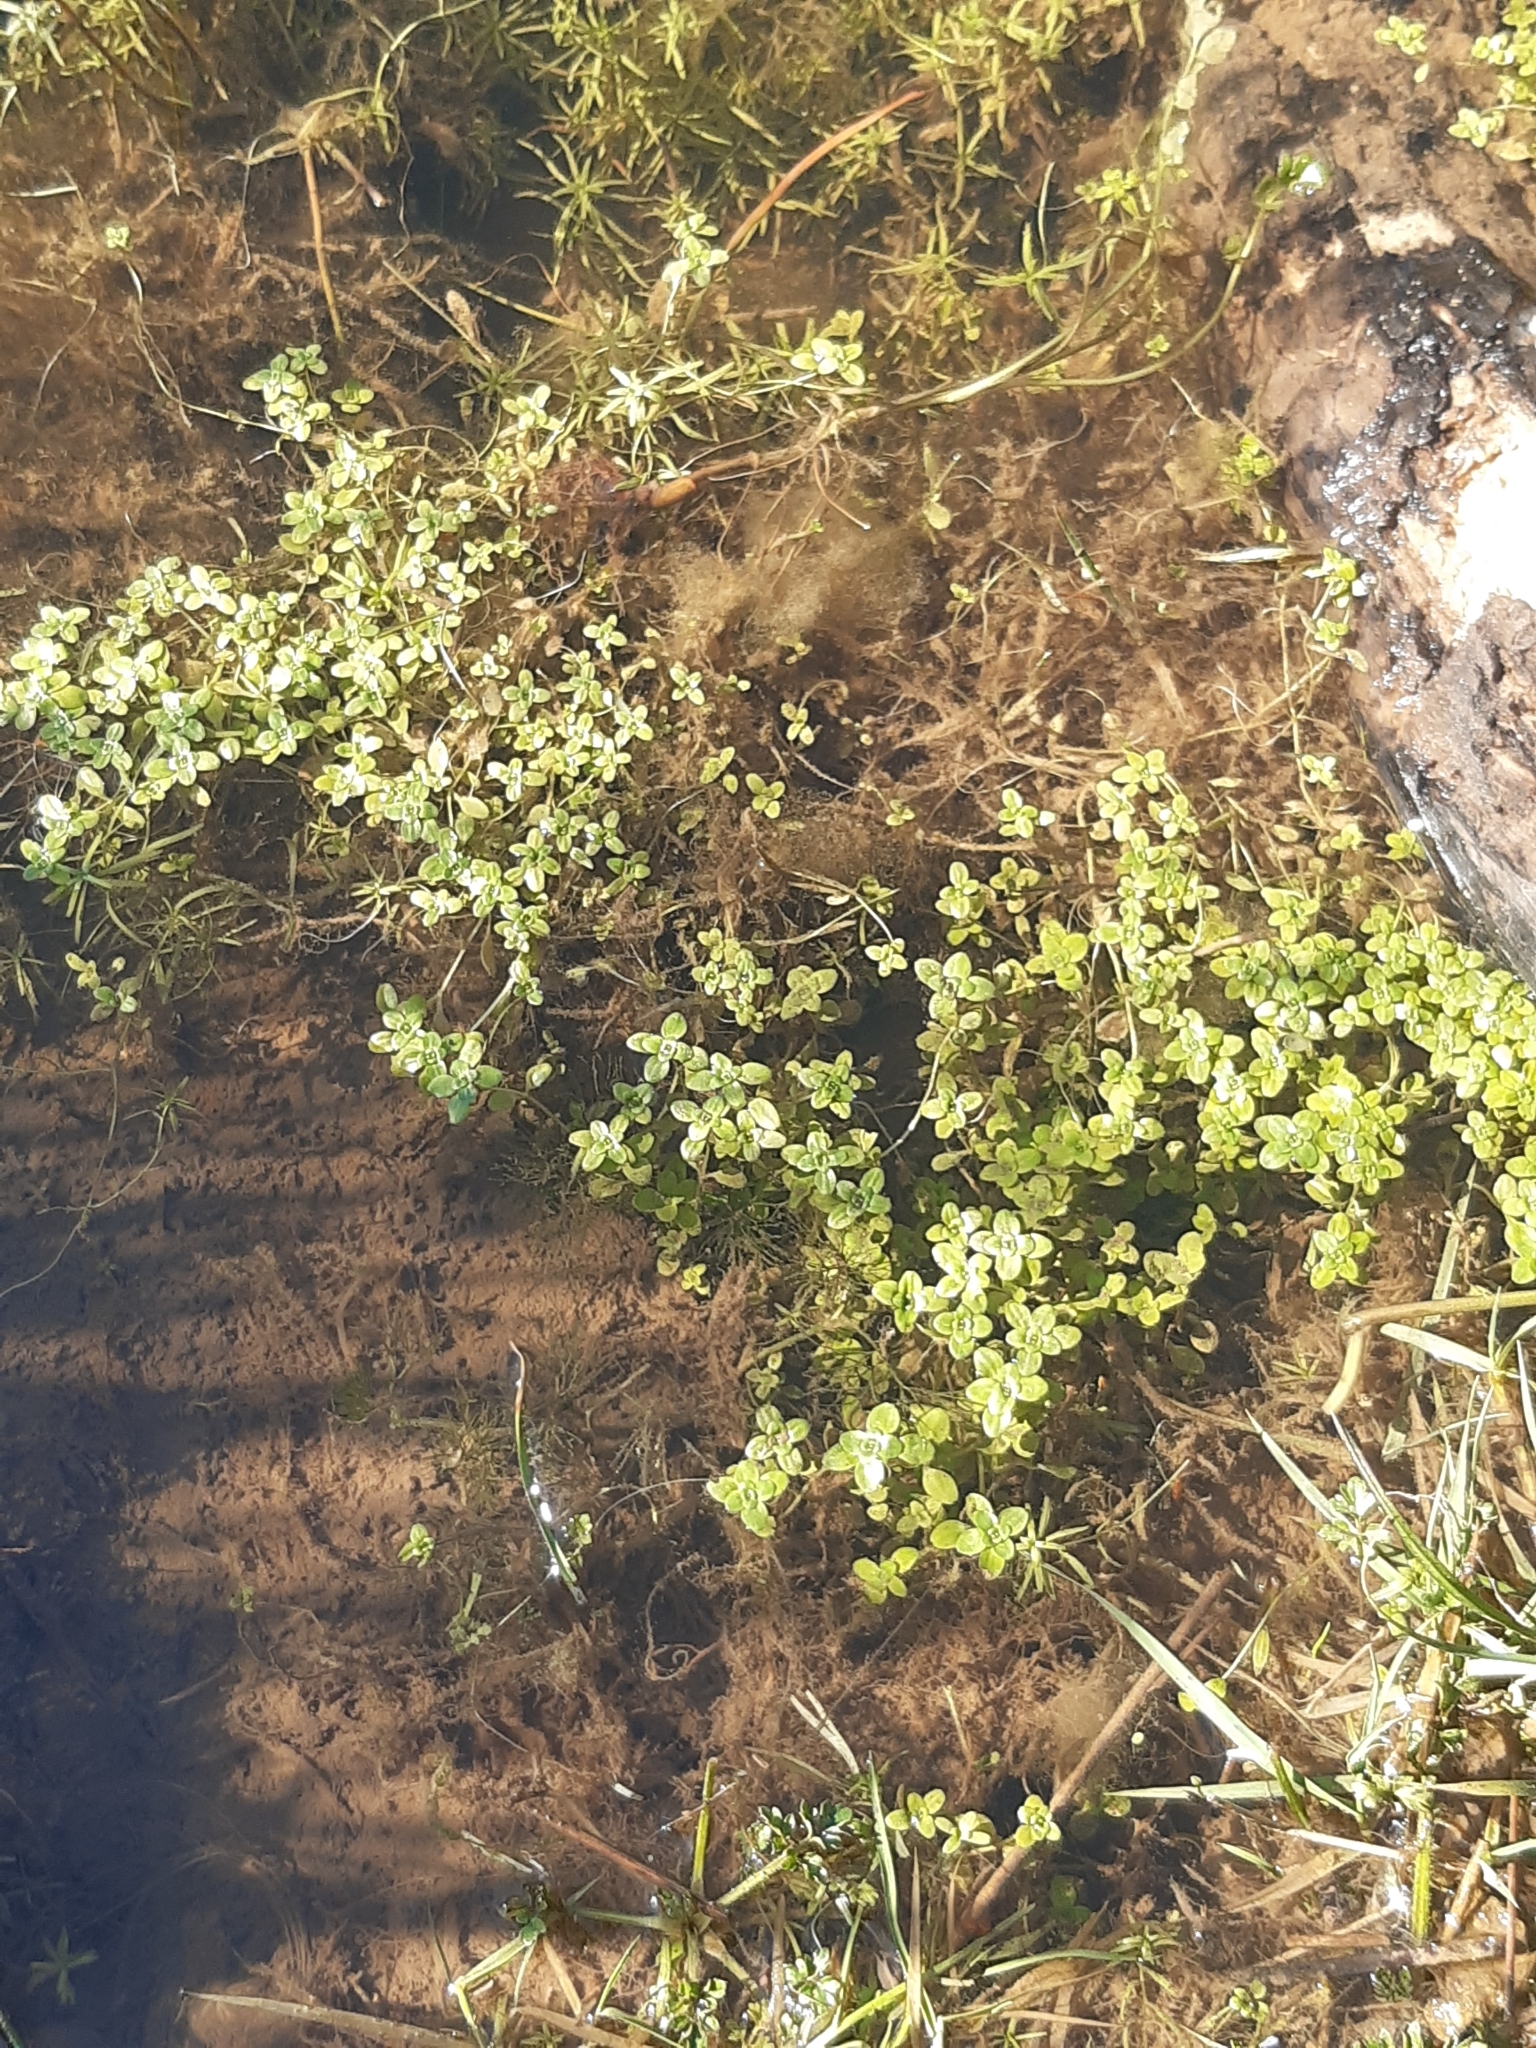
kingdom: Plantae
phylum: Tracheophyta
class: Magnoliopsida
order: Lamiales
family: Plantaginaceae
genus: Callitriche
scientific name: Callitriche stagnalis
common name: Common water-starwort
